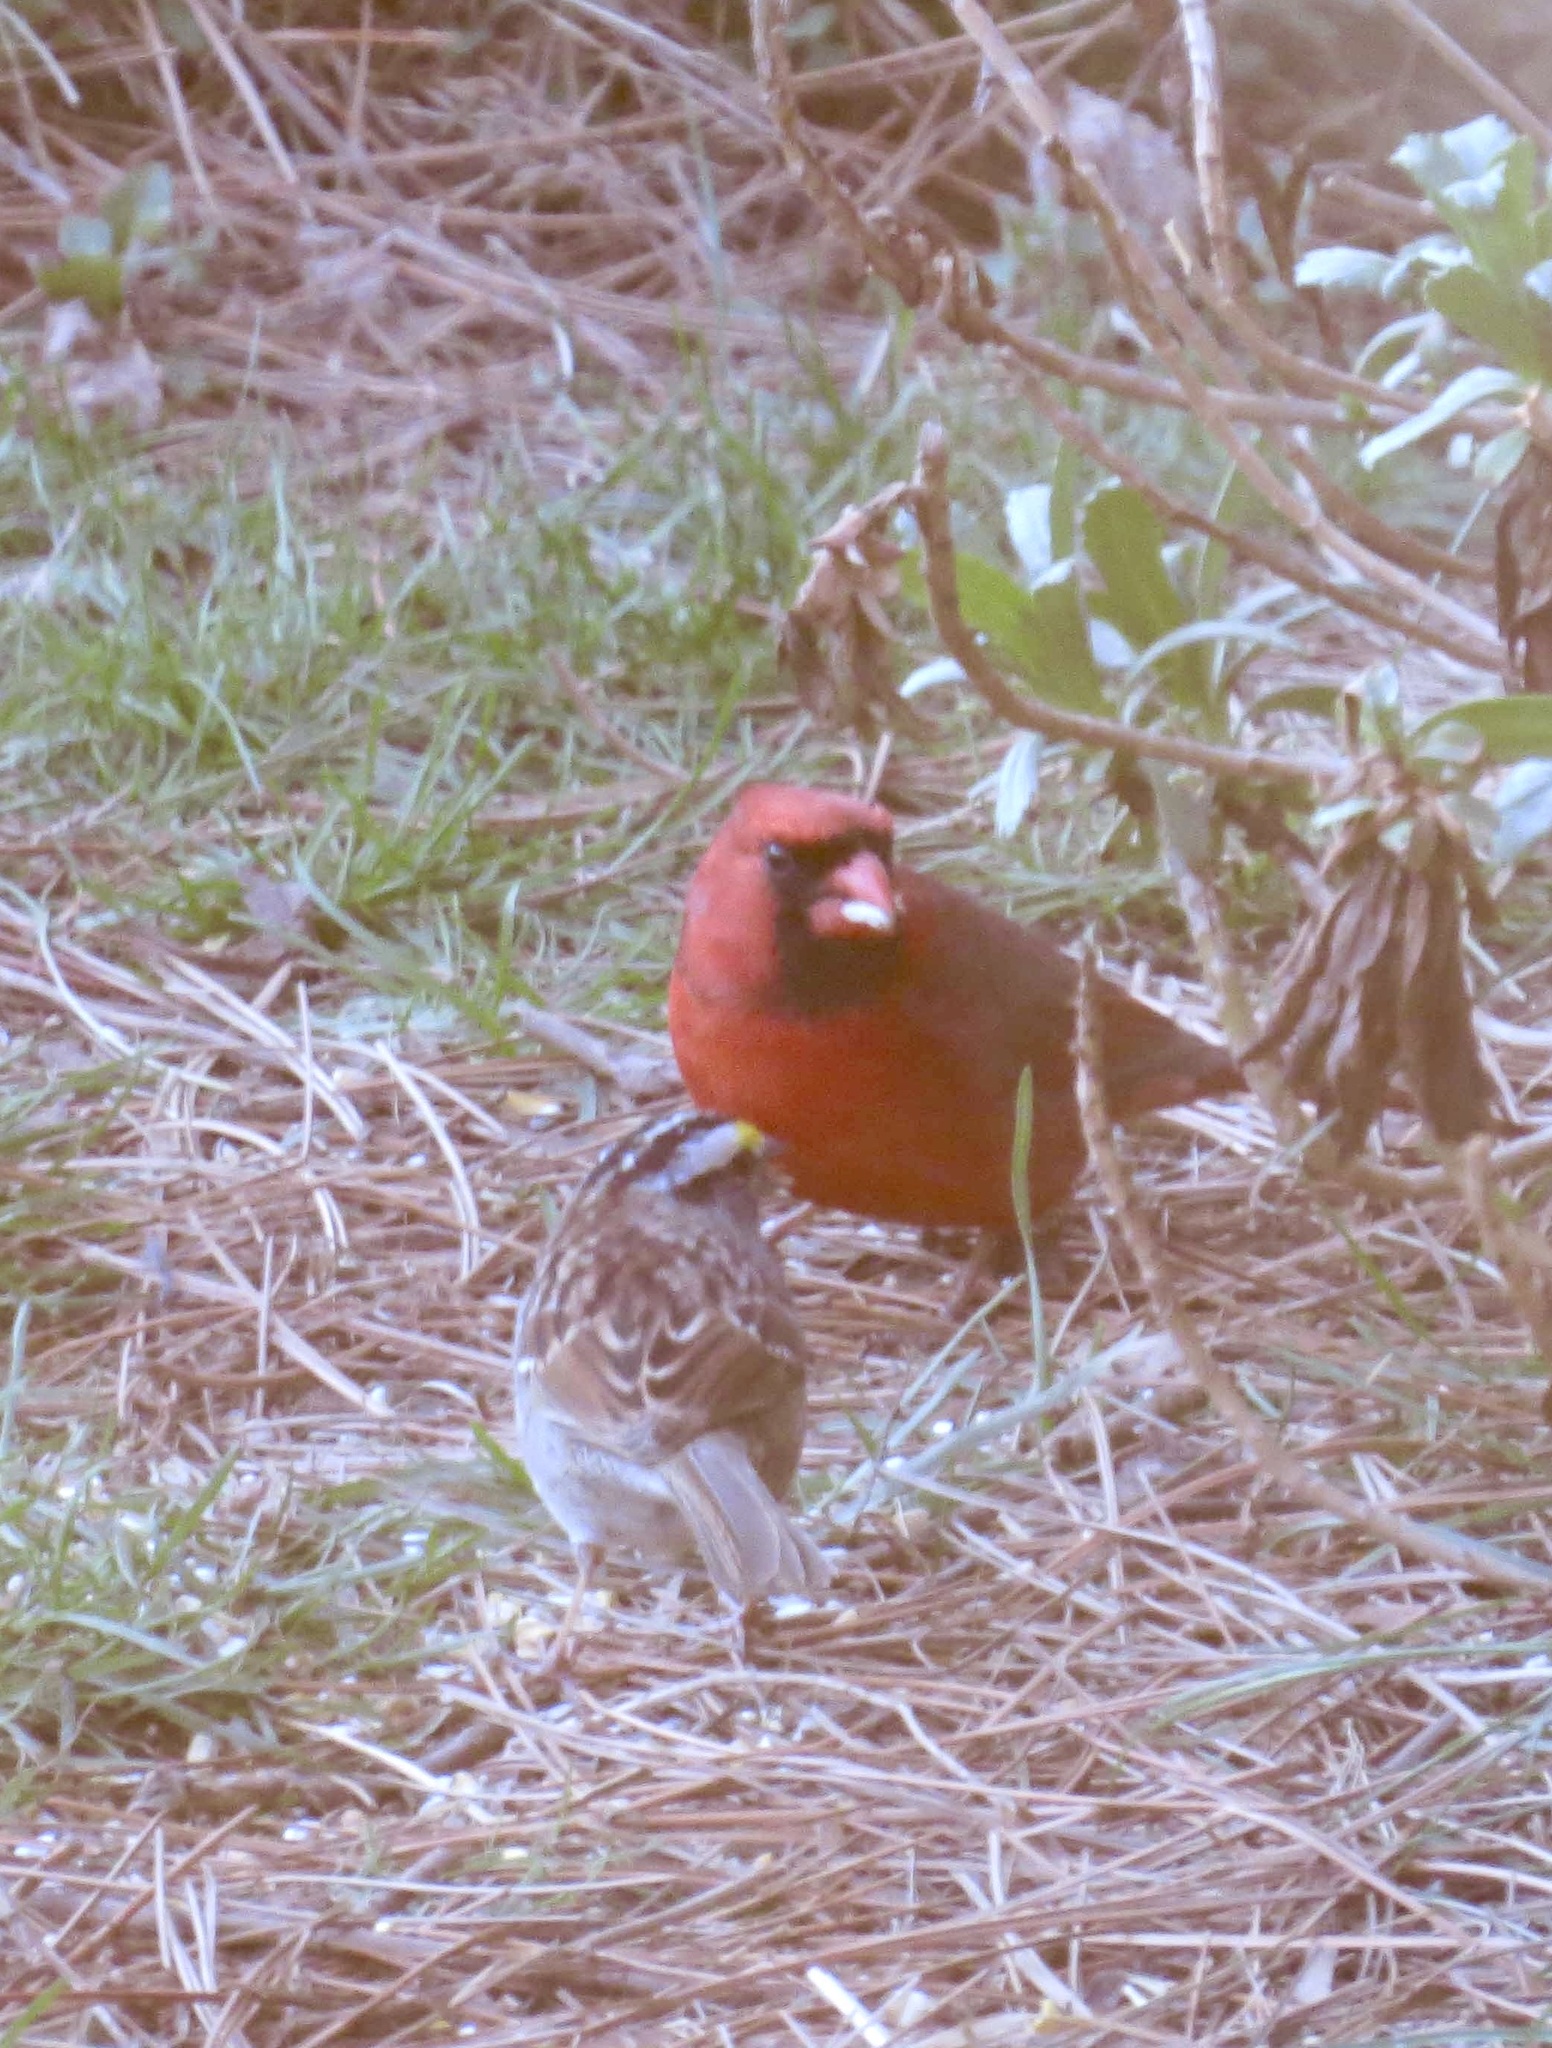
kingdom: Animalia
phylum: Chordata
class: Aves
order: Passeriformes
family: Cardinalidae
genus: Cardinalis
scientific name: Cardinalis cardinalis
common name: Northern cardinal
